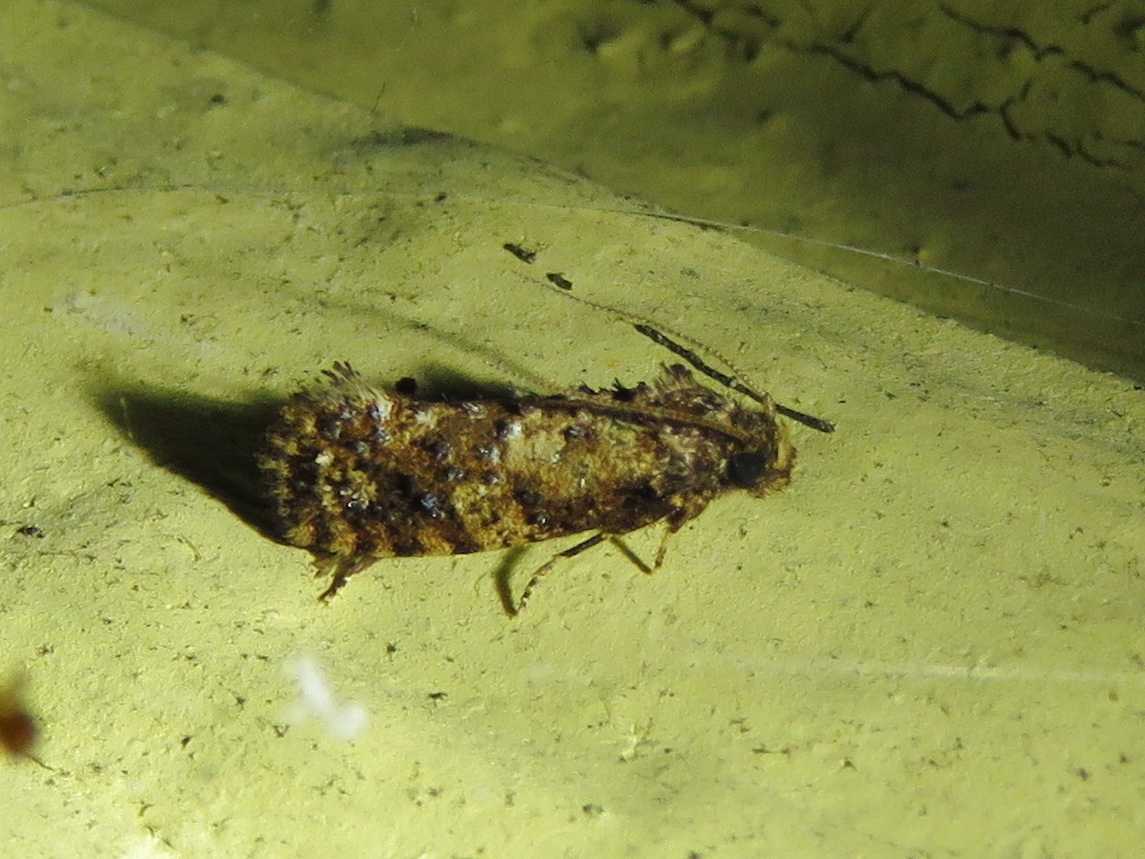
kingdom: Animalia
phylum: Arthropoda
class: Insecta
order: Lepidoptera
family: Tineidae
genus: Acrolophus
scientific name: Acrolophus cressoni
